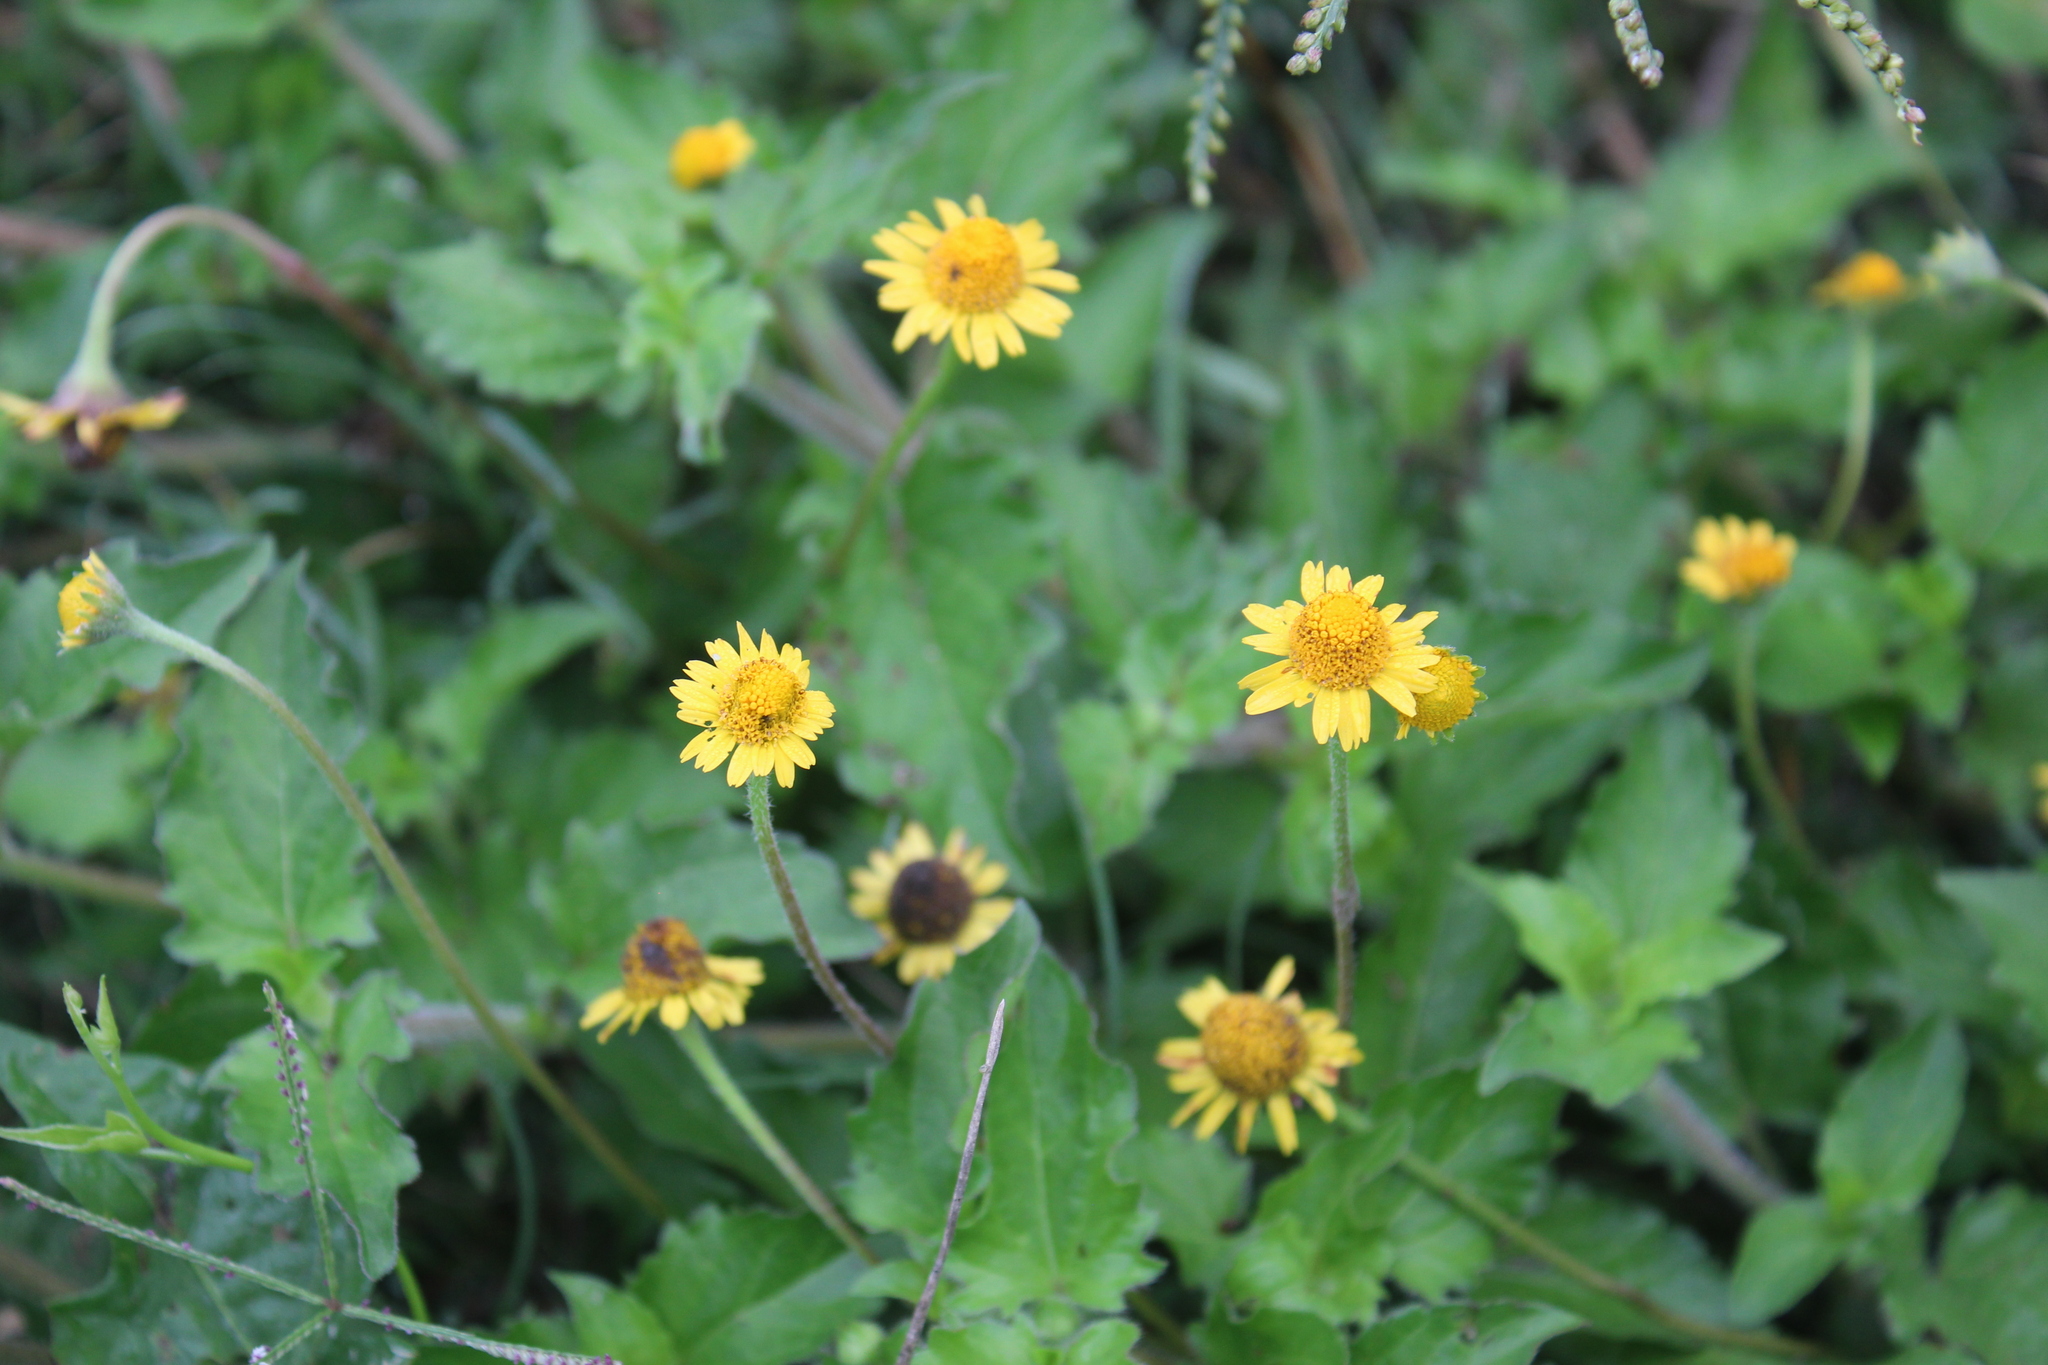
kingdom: Plantae
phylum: Tracheophyta
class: Magnoliopsida
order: Asterales
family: Asteraceae
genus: Acmella
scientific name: Acmella repens
